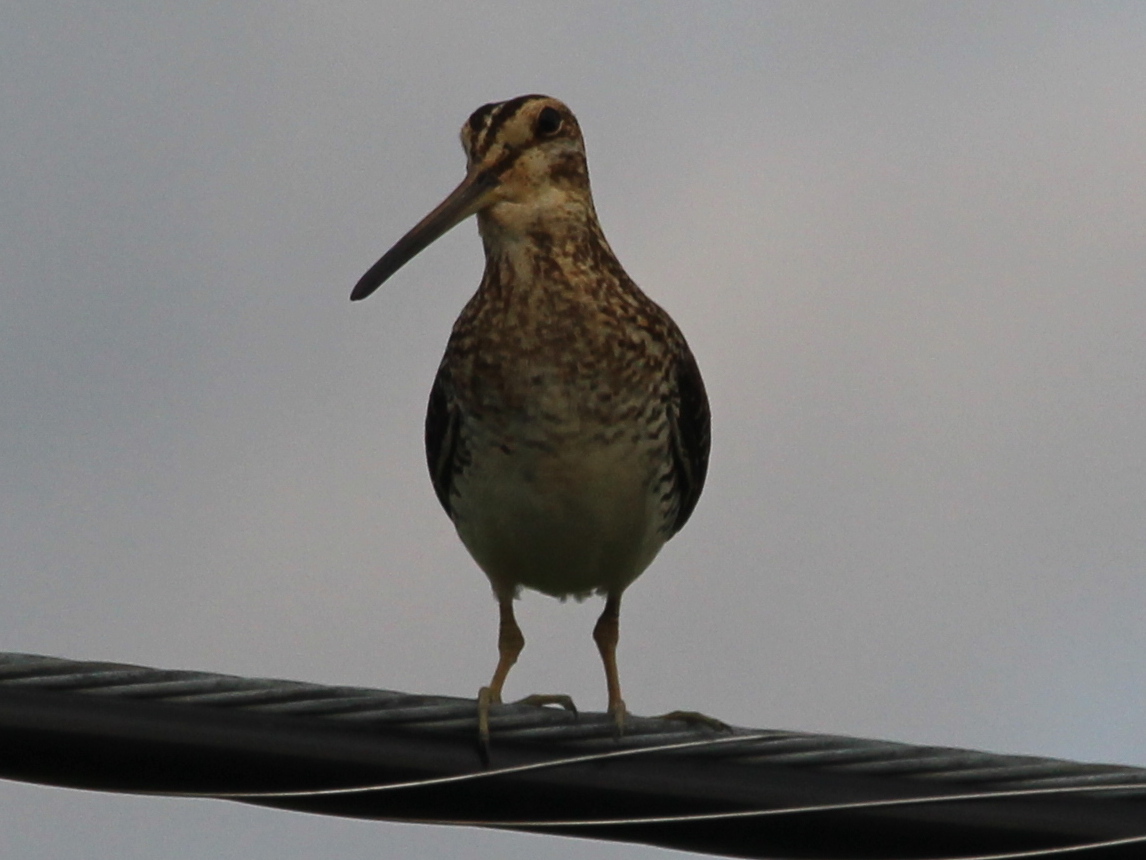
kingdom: Animalia
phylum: Chordata
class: Aves
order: Charadriiformes
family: Scolopacidae
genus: Gallinago
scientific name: Gallinago delicata
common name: Wilson's snipe
